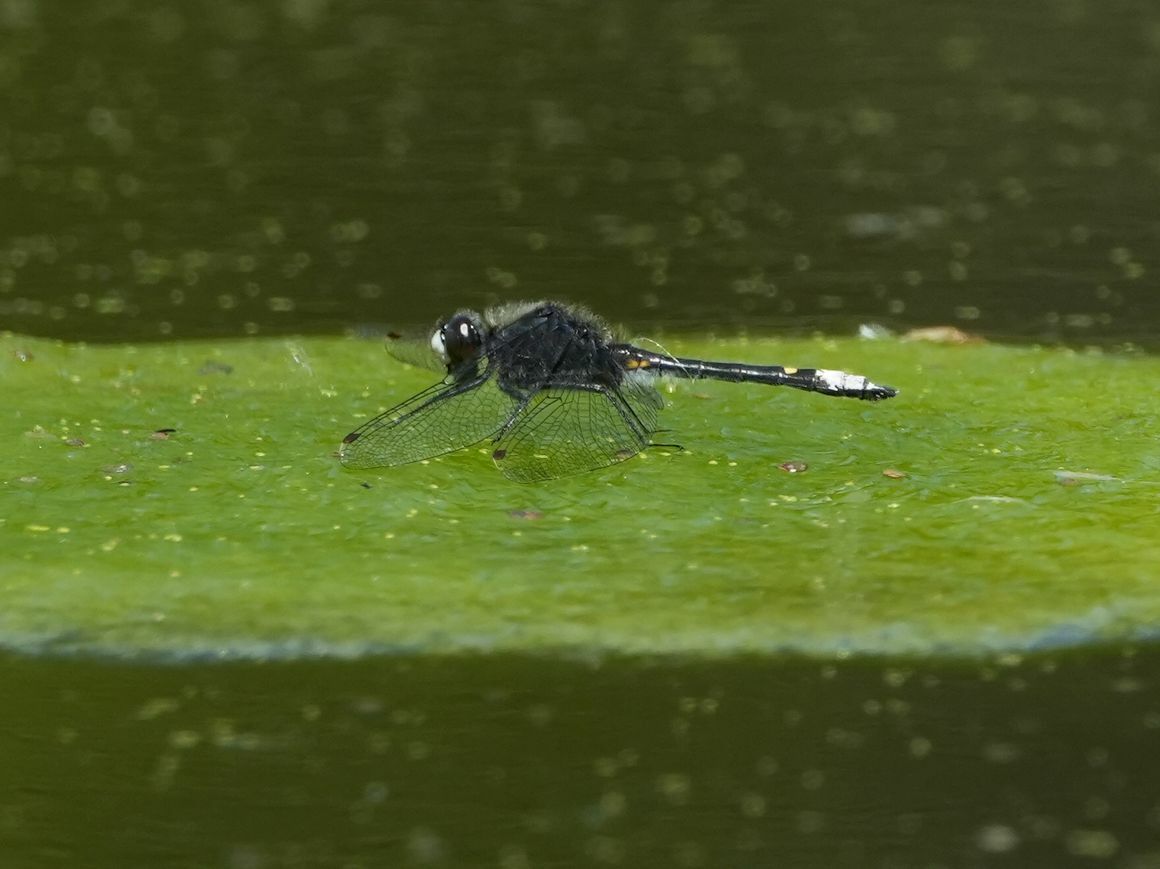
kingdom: Animalia
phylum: Arthropoda
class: Insecta
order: Odonata
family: Libellulidae
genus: Leucorrhinia
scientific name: Leucorrhinia intacta
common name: Dot-tailed whiteface
